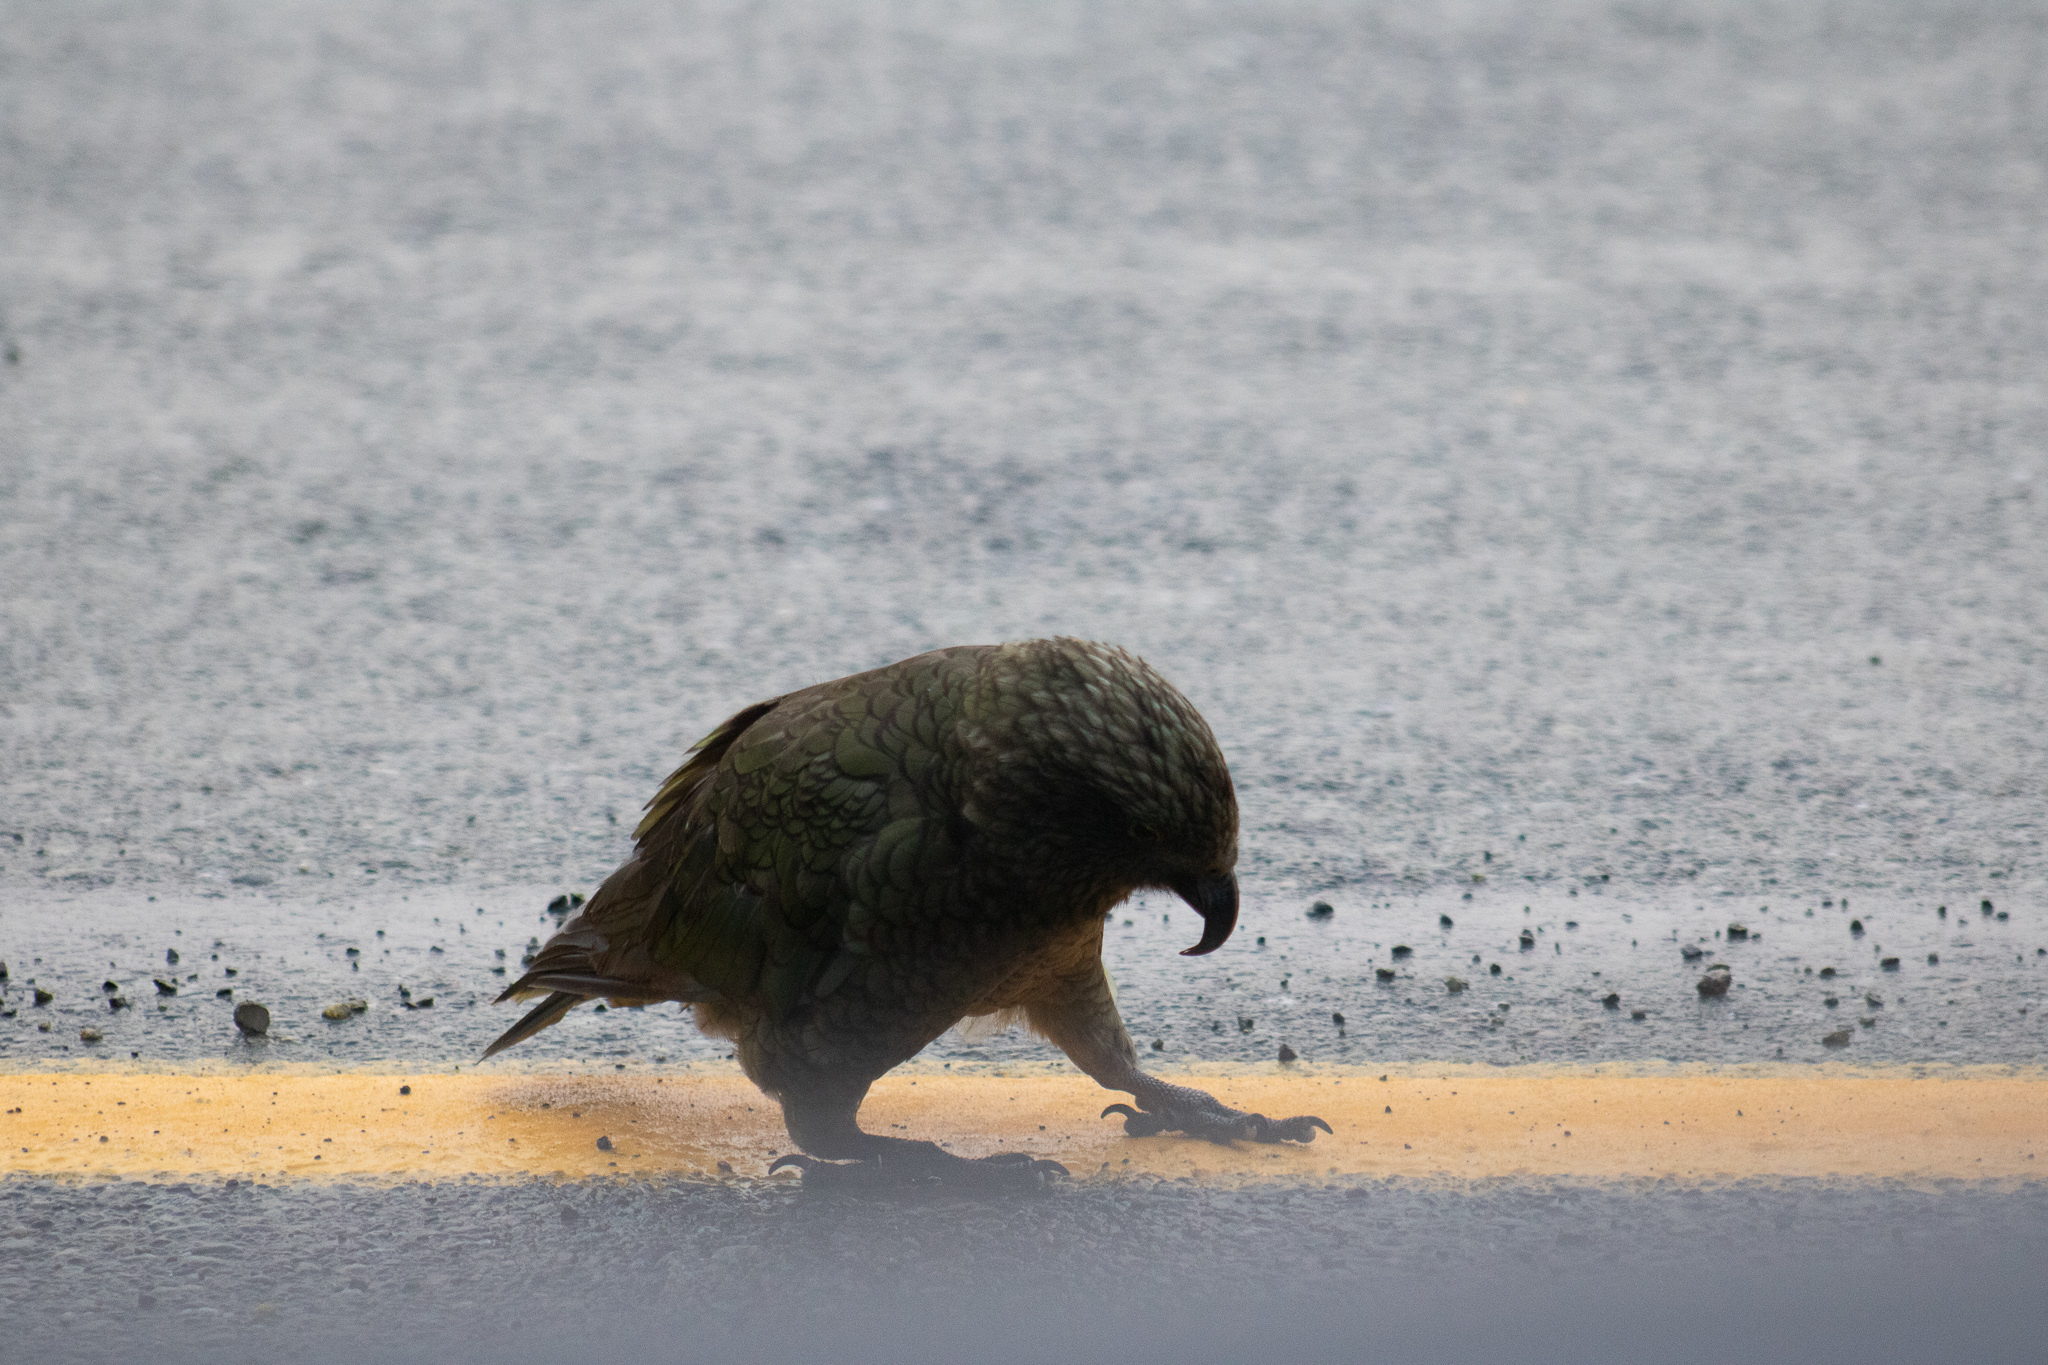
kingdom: Animalia
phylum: Chordata
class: Aves
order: Psittaciformes
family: Psittacidae
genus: Nestor
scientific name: Nestor notabilis
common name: Kea
